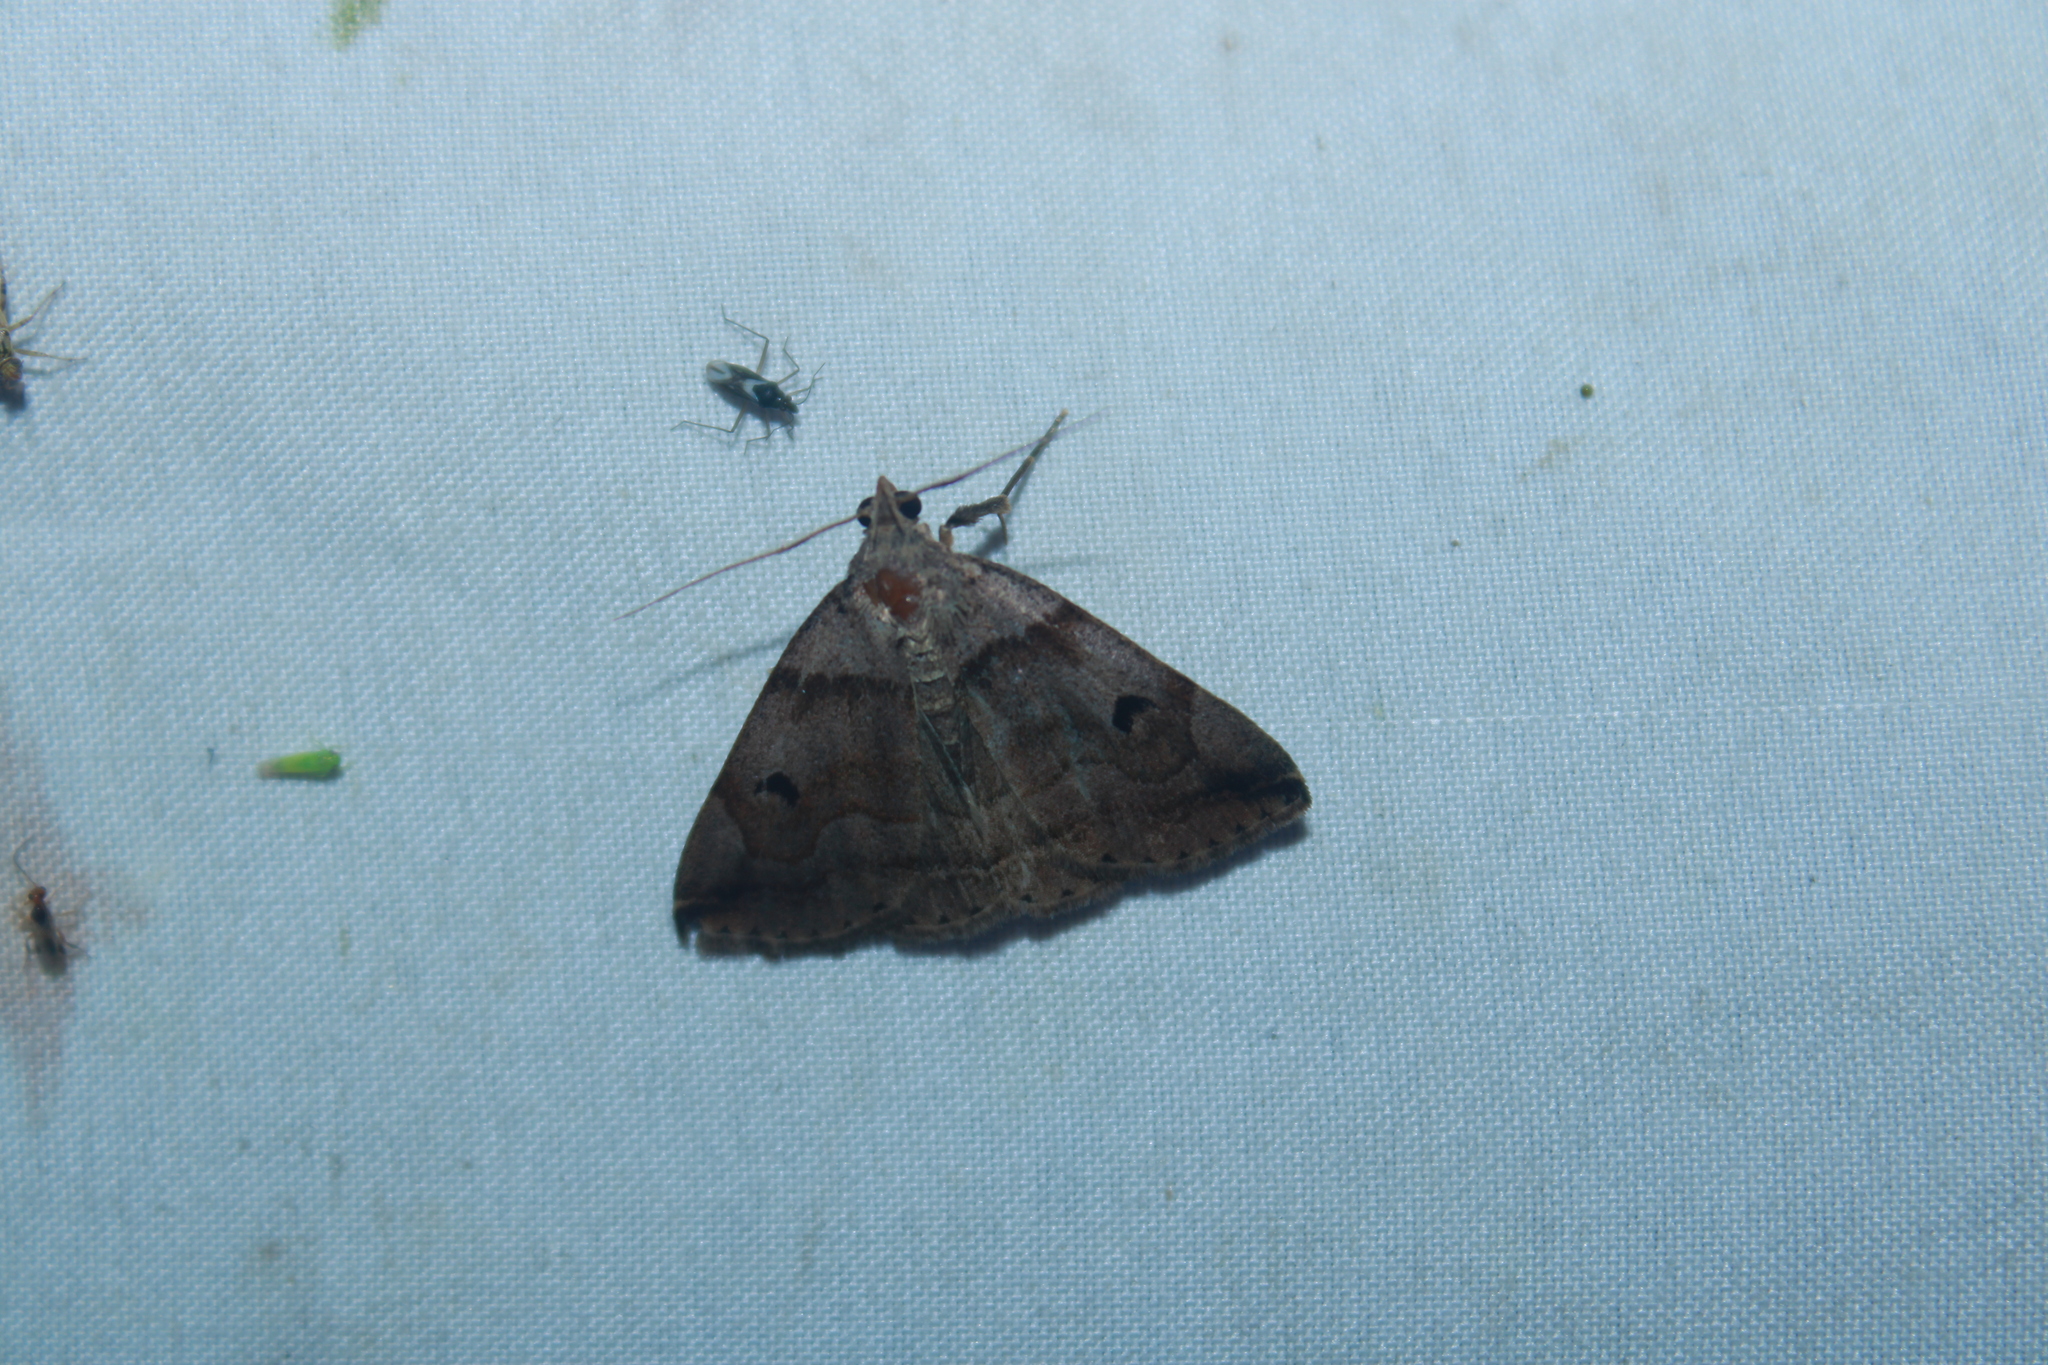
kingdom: Animalia
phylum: Arthropoda
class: Insecta
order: Lepidoptera
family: Erebidae
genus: Zanclognatha
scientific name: Zanclognatha laevigata
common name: Variable fan-foot
